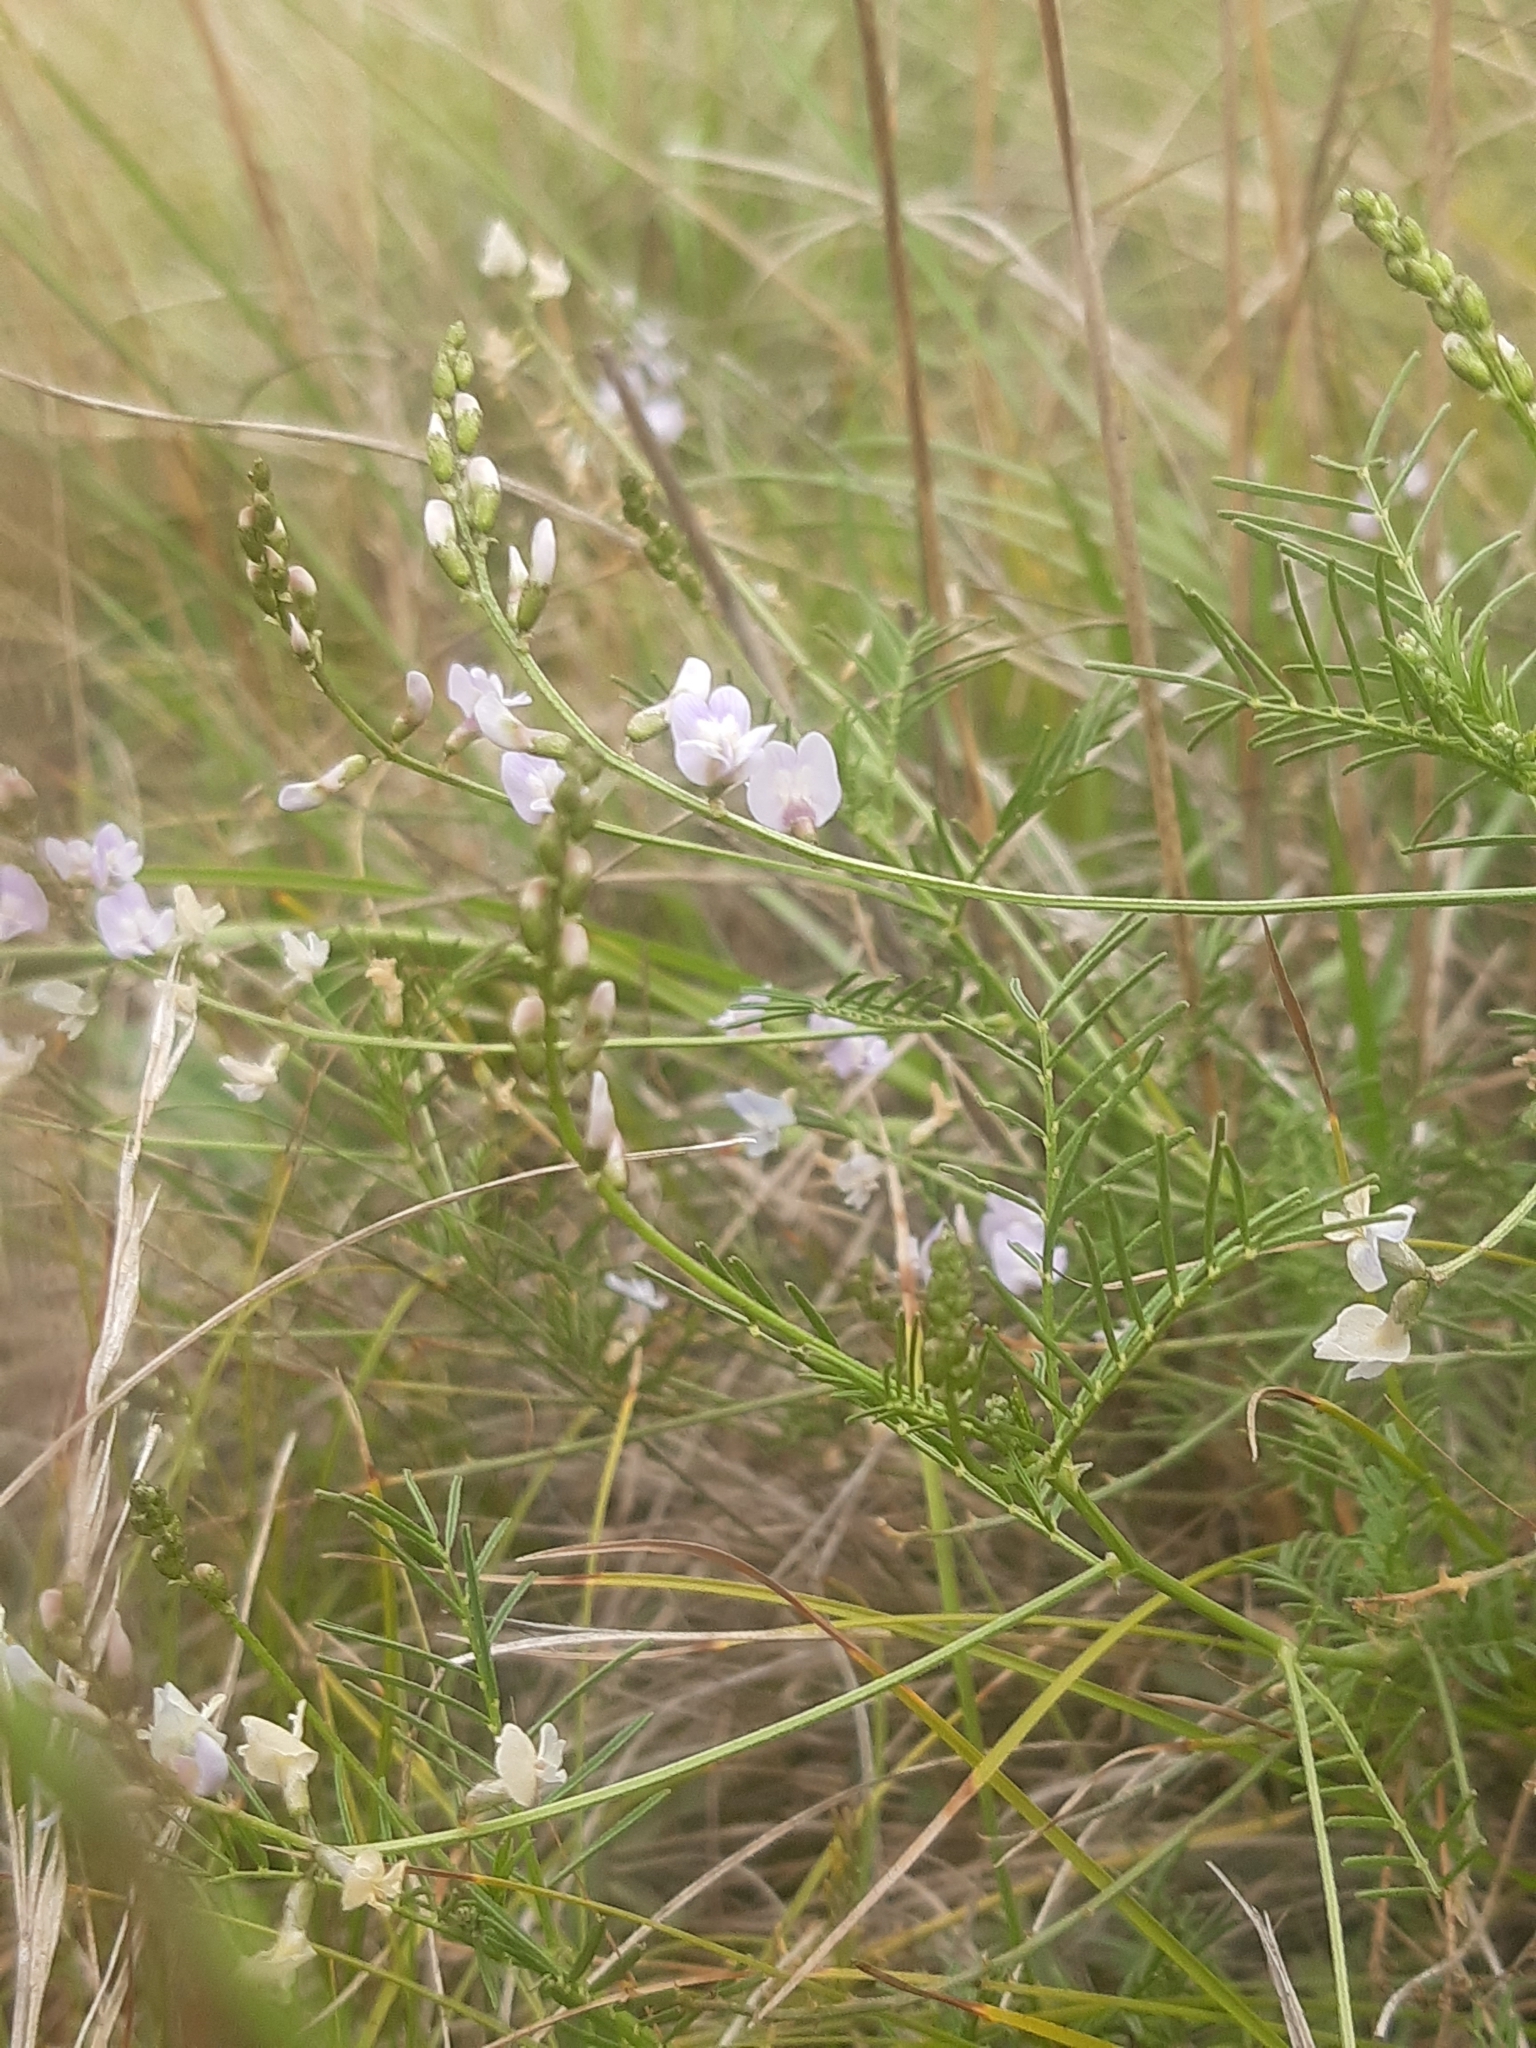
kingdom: Plantae
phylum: Tracheophyta
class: Magnoliopsida
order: Fabales
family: Fabaceae
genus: Astragalus
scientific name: Astragalus austriacus
